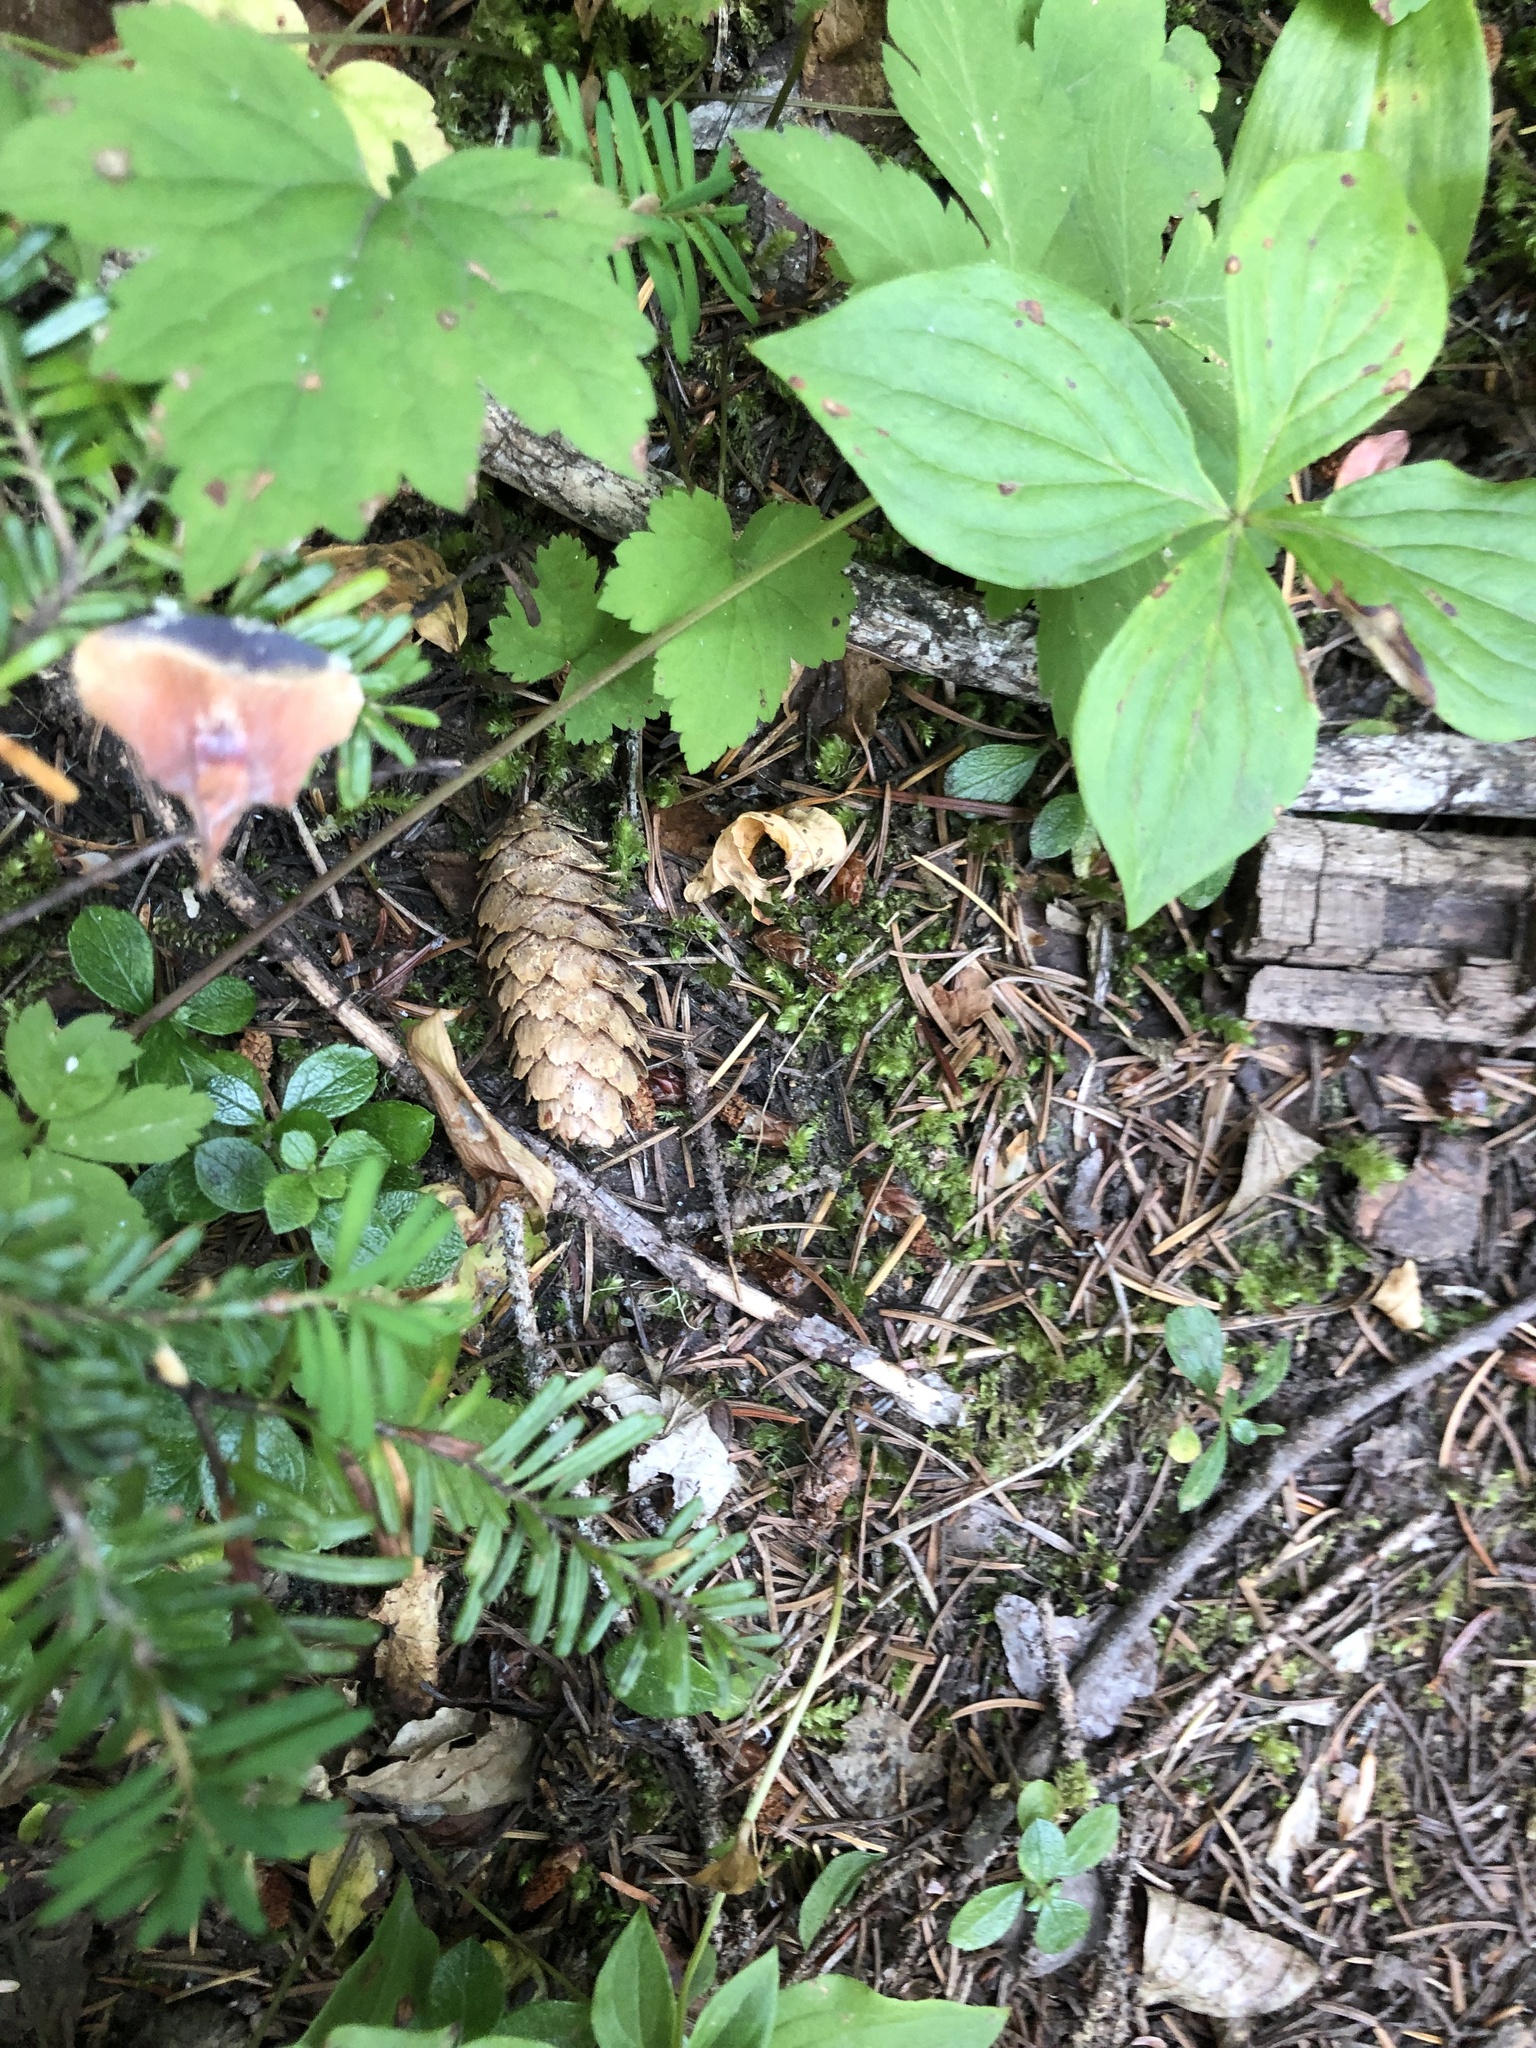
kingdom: Plantae
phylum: Tracheophyta
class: Pinopsida
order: Pinales
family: Pinaceae
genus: Picea
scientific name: Picea engelmannii
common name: Engelmann spruce
